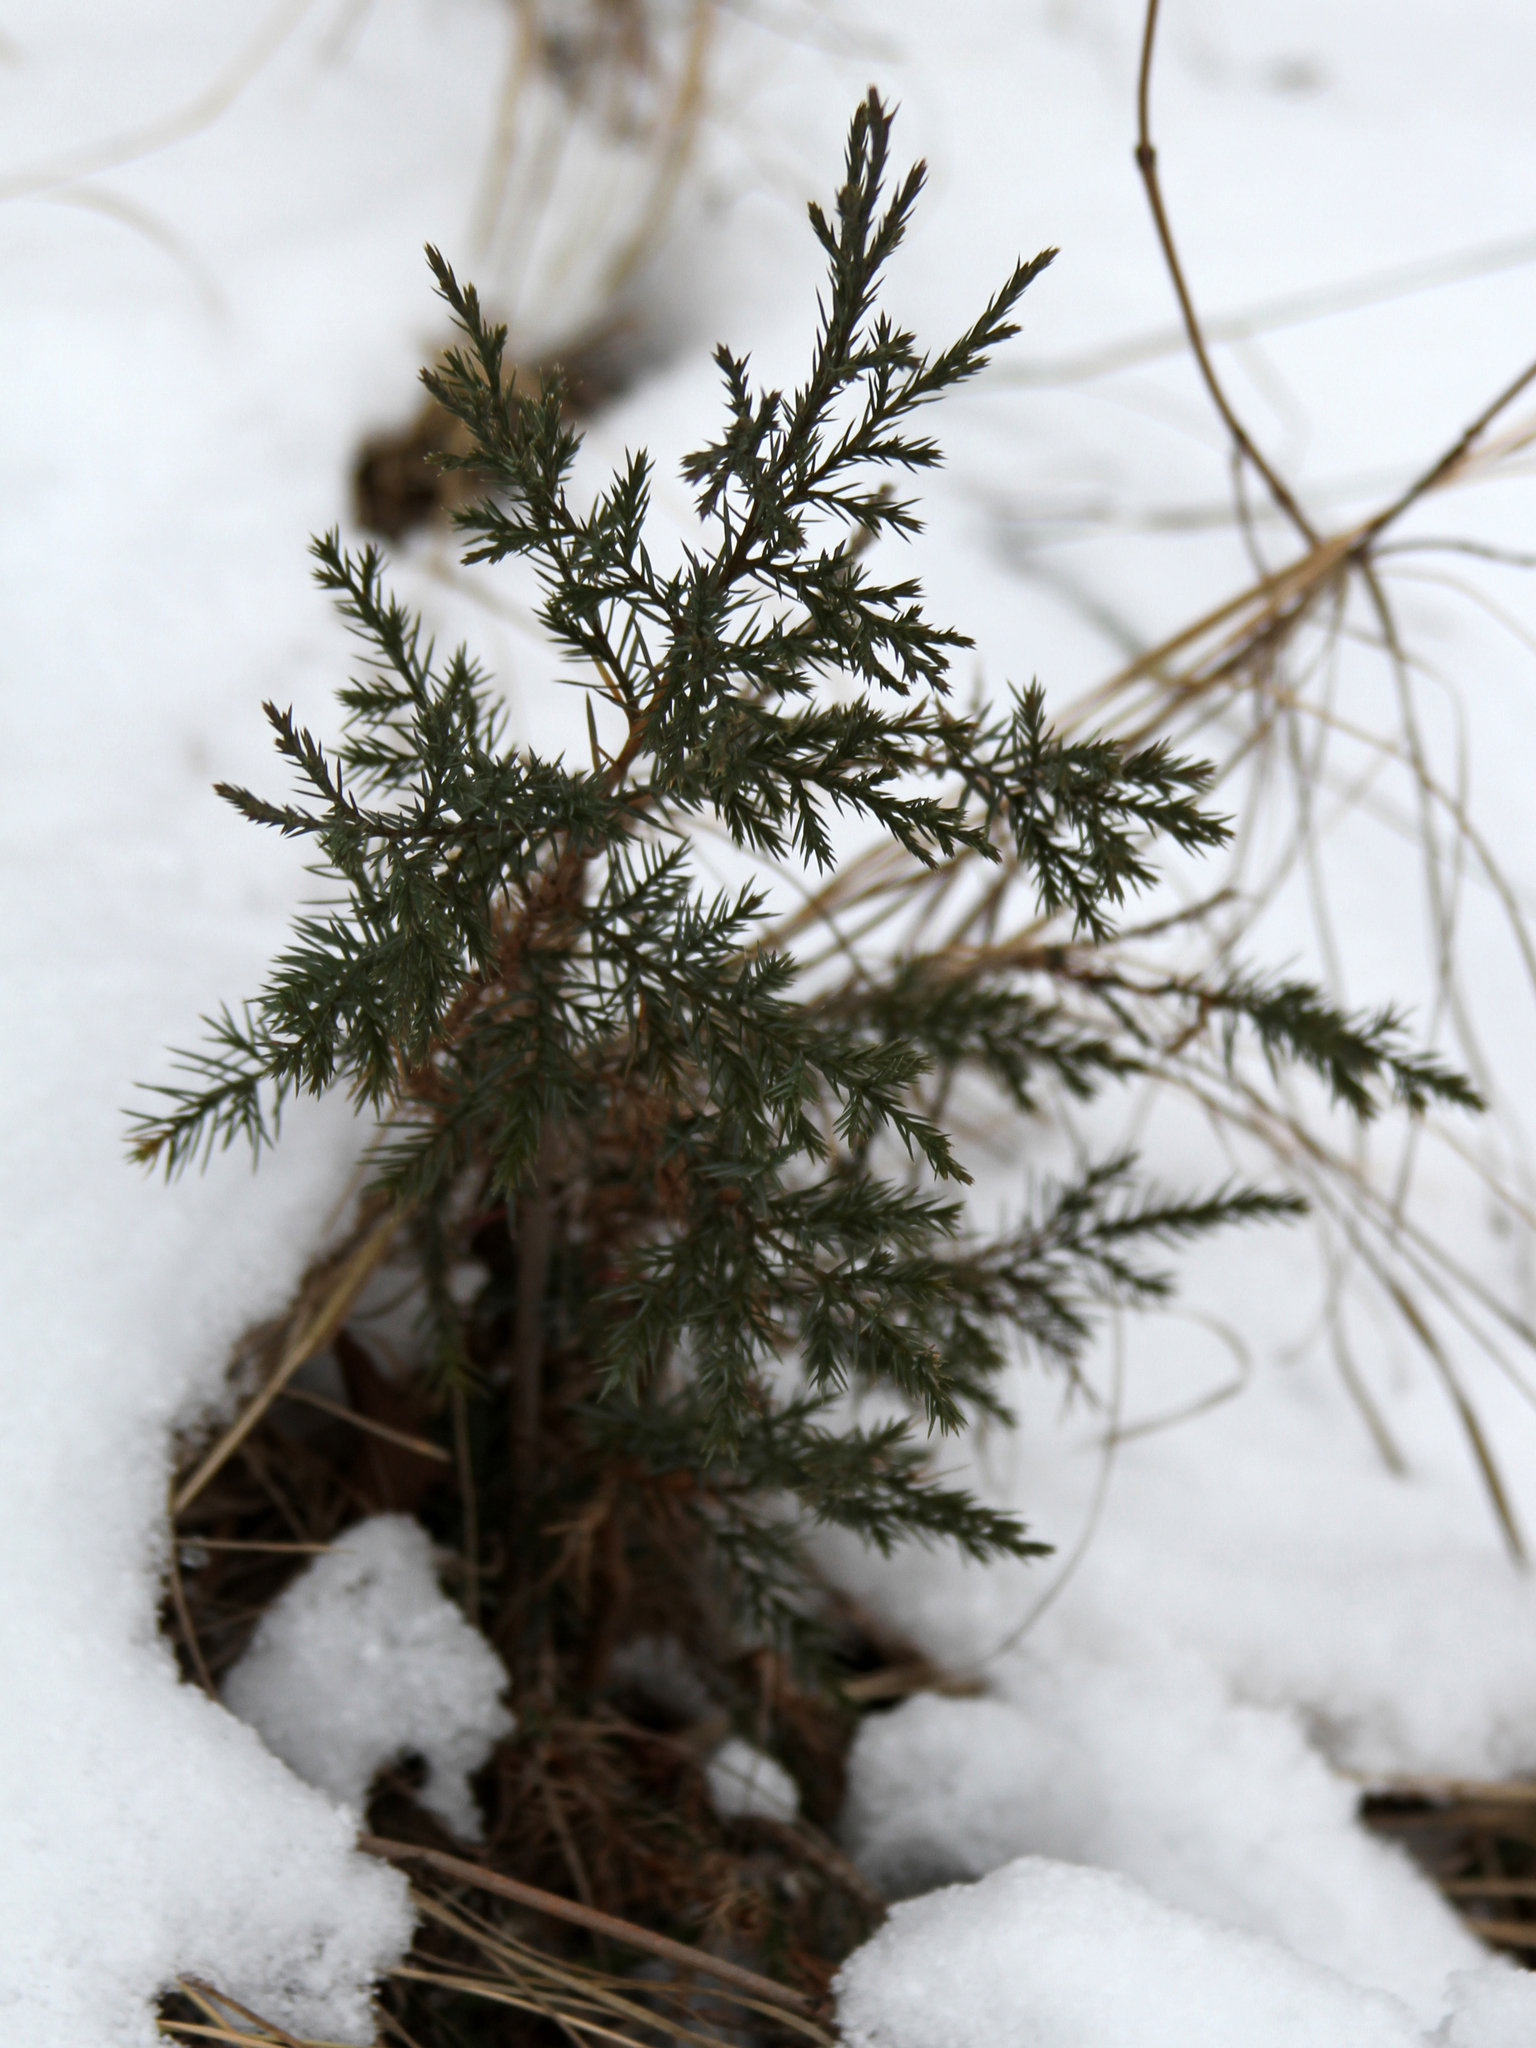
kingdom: Plantae
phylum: Tracheophyta
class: Pinopsida
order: Pinales
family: Cupressaceae
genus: Juniperus
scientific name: Juniperus virginiana
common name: Red juniper
